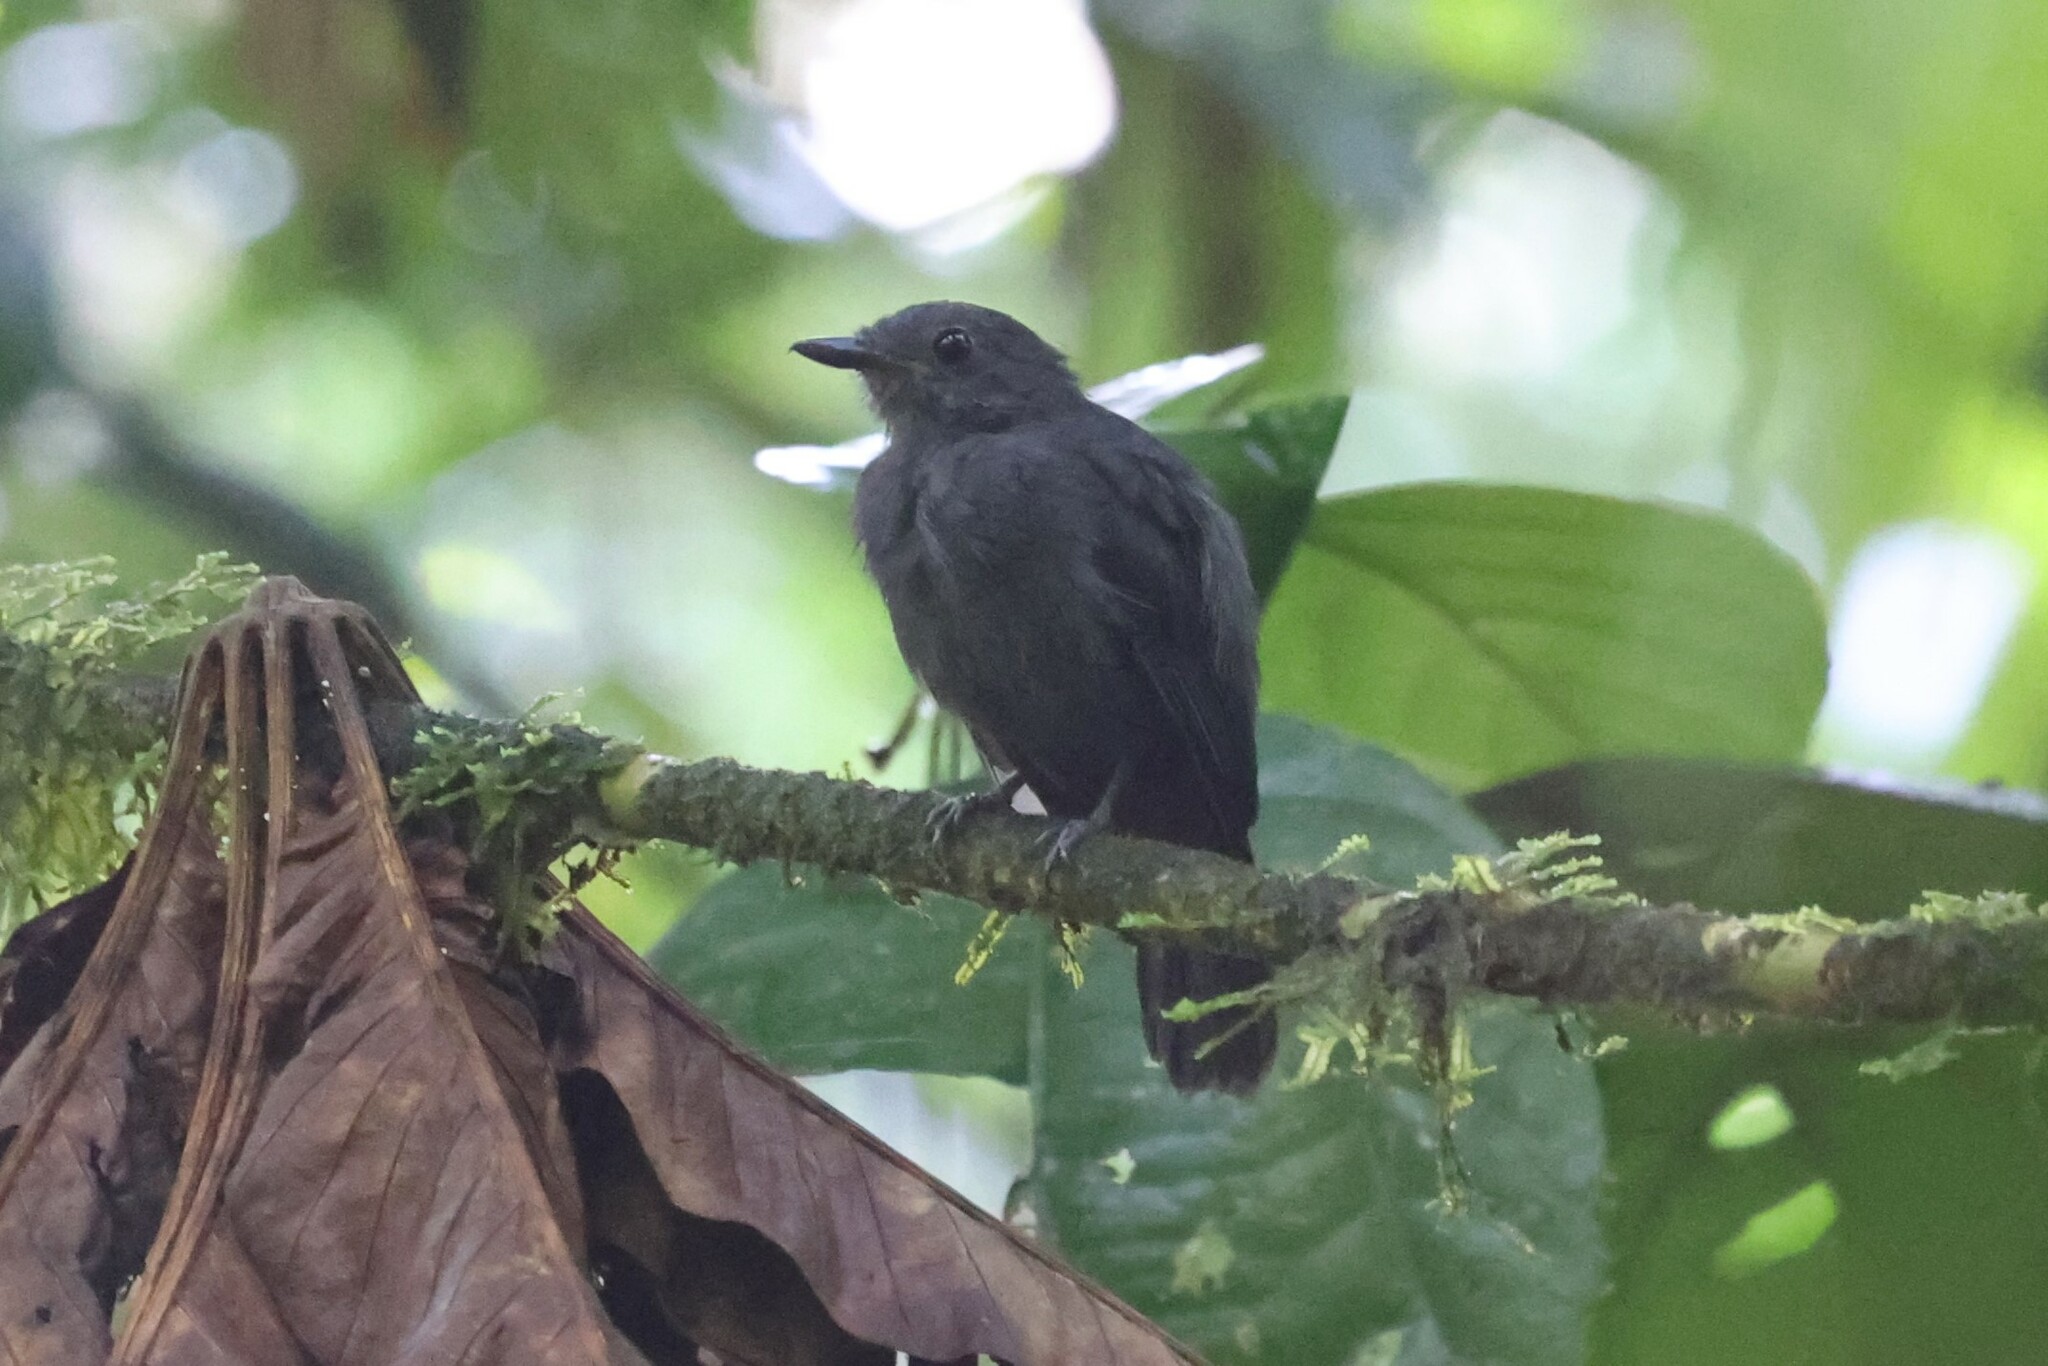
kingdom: Animalia
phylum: Chordata
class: Aves
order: Passeriformes
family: Thamnophilidae
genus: Thamnomanes
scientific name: Thamnomanes caesius
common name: Cinereous antshrike
